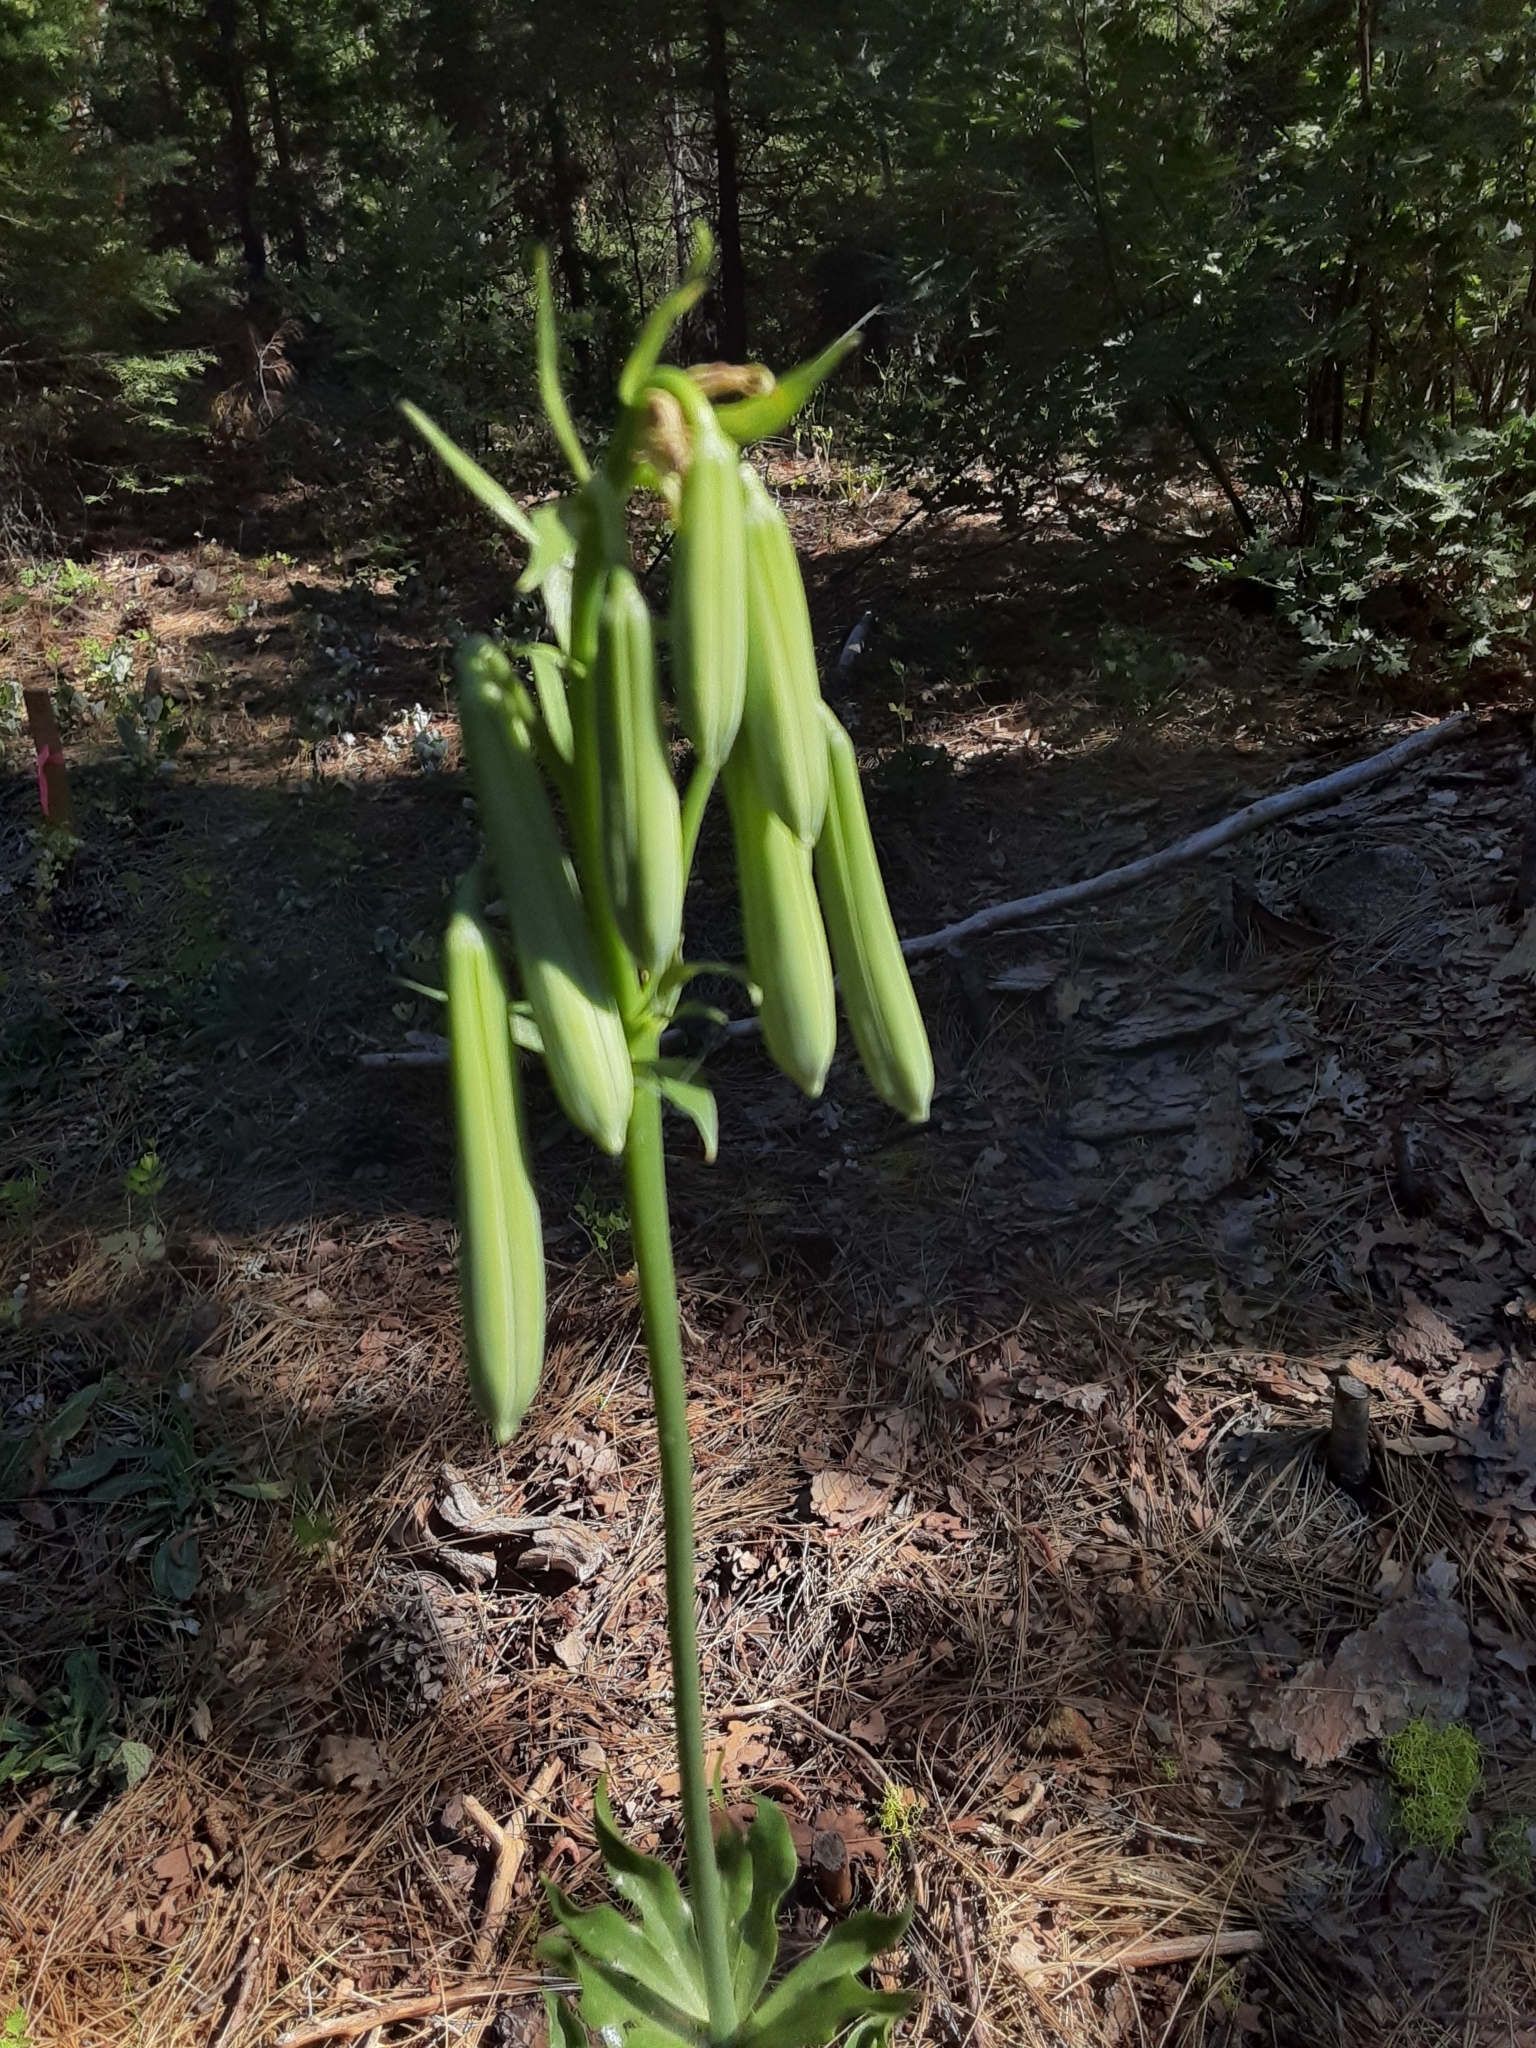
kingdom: Plantae
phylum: Tracheophyta
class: Liliopsida
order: Liliales
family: Liliaceae
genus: Lilium
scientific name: Lilium washingtonianum
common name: Washington lily
